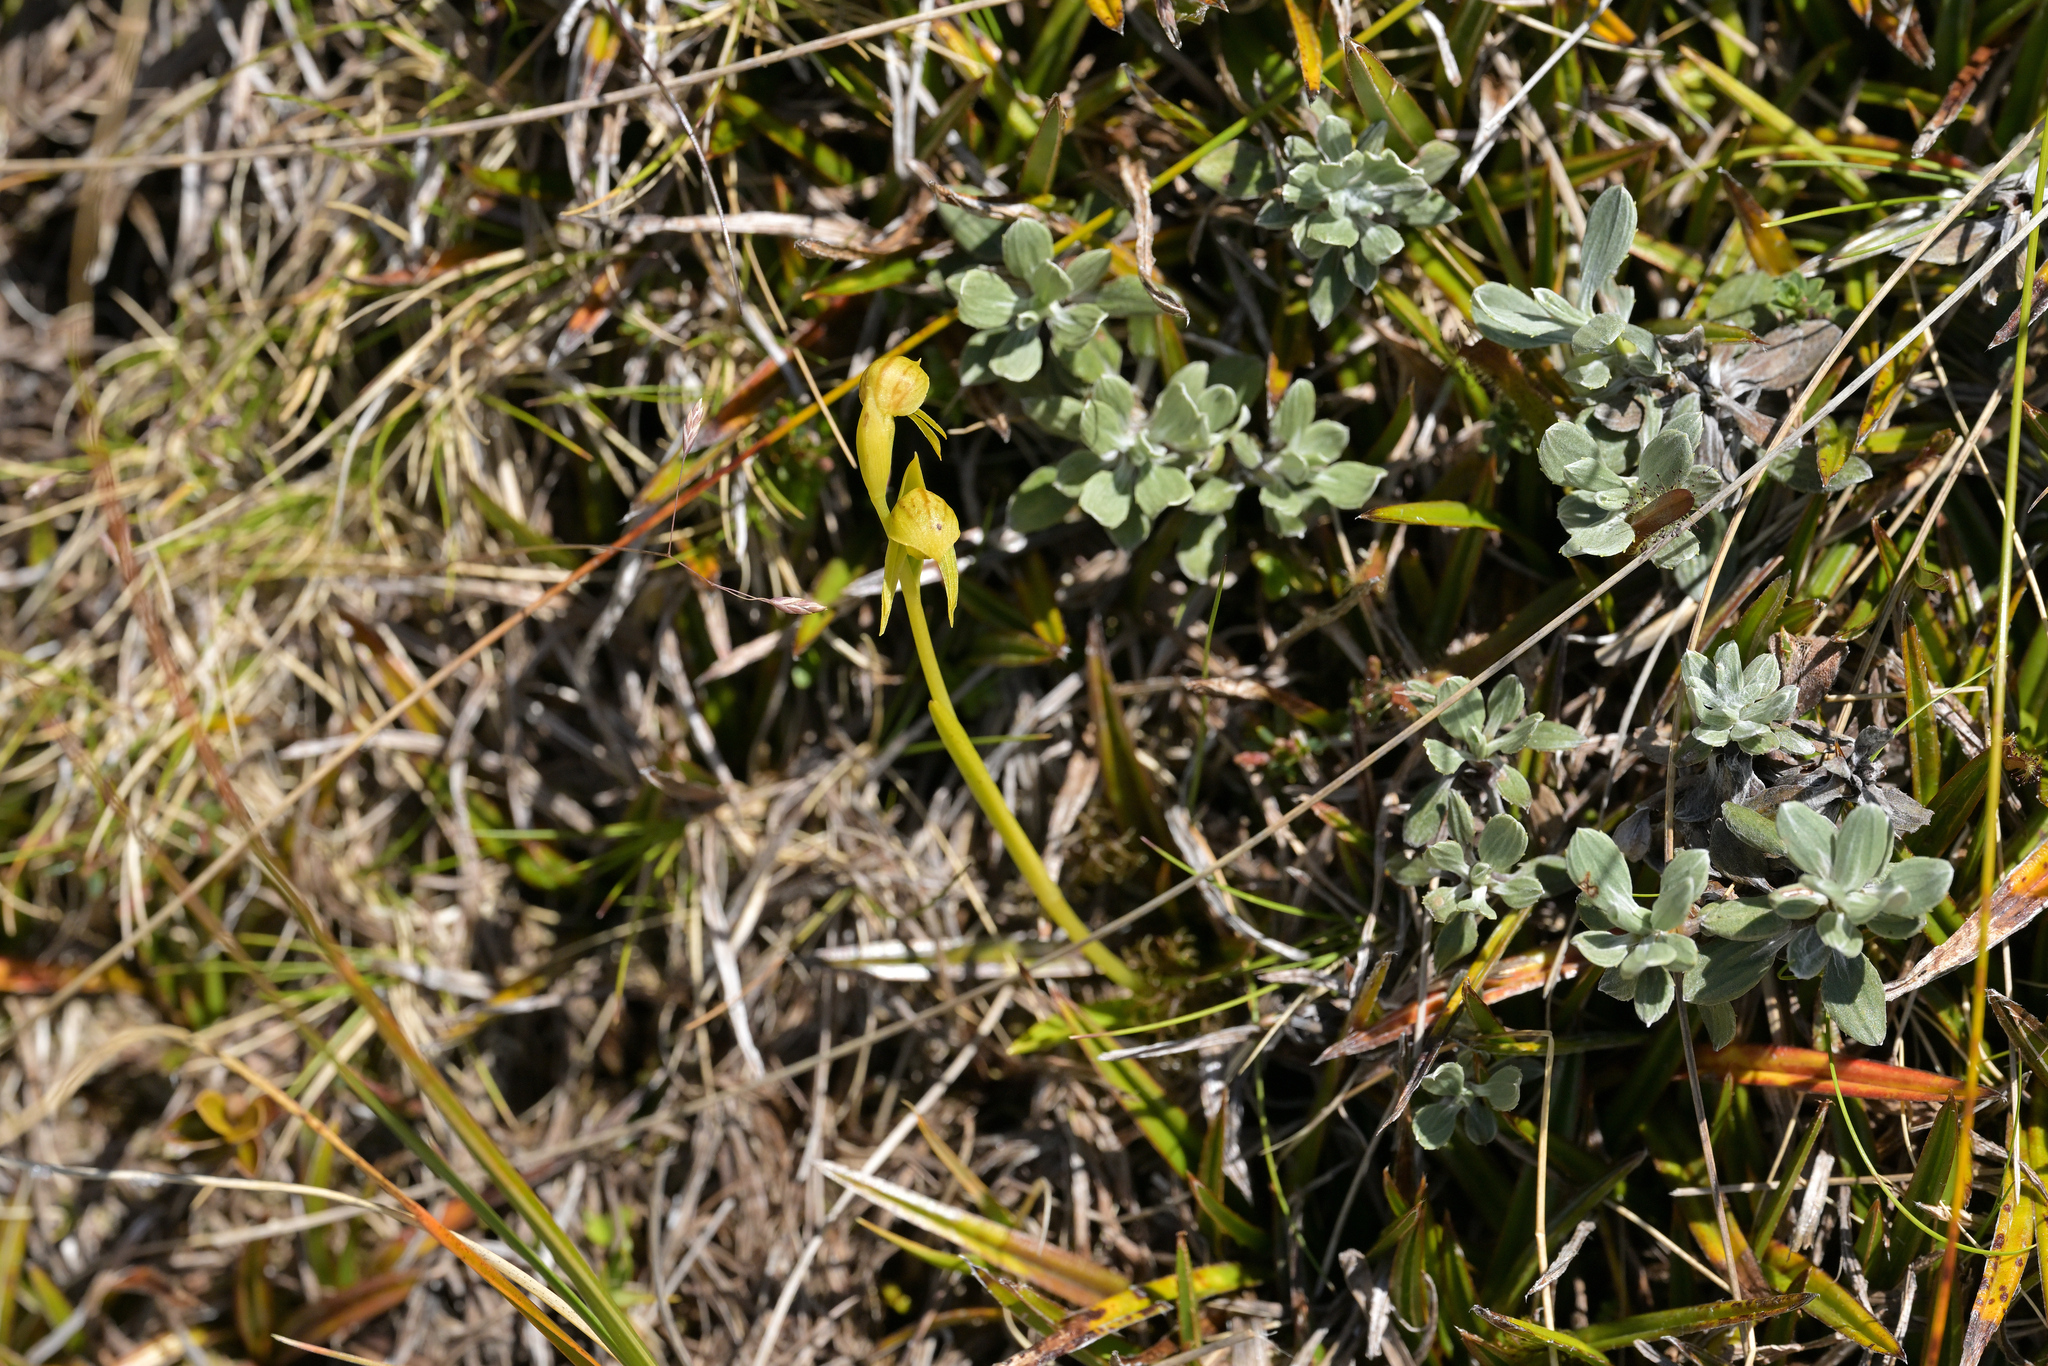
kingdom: Plantae
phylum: Tracheophyta
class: Liliopsida
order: Asparagales
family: Orchidaceae
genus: Waireia
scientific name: Waireia stenopetala
